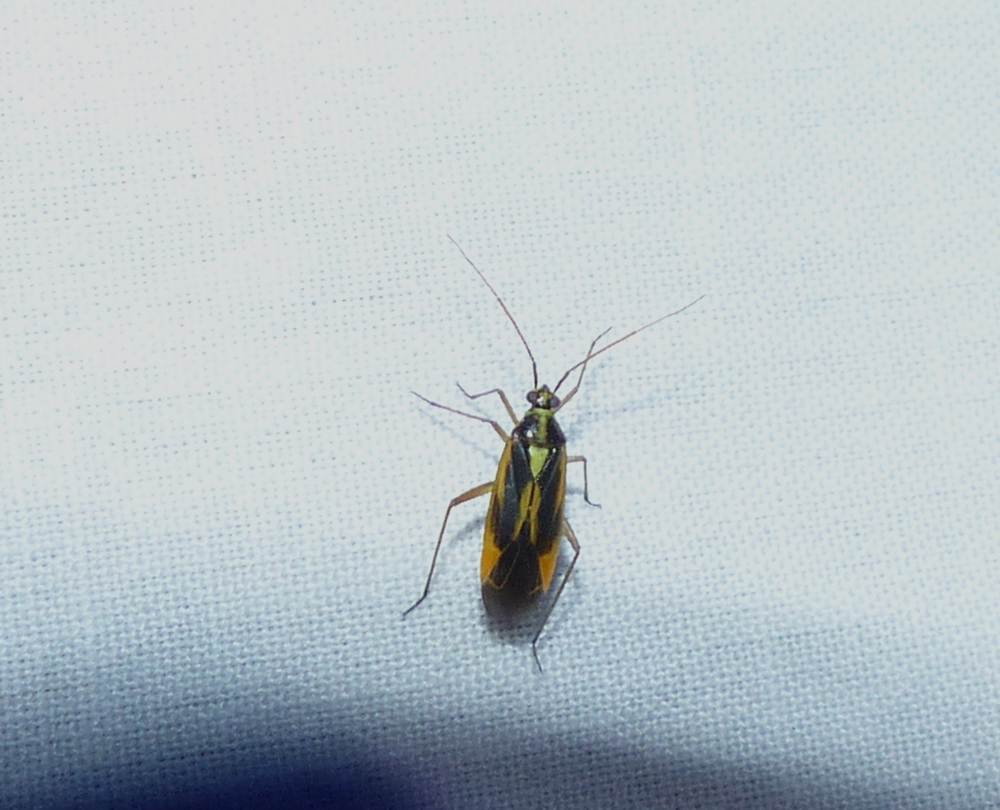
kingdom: Animalia
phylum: Arthropoda
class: Insecta
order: Hemiptera
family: Miridae
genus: Stenotus
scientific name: Stenotus binotatus
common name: Plant bug
